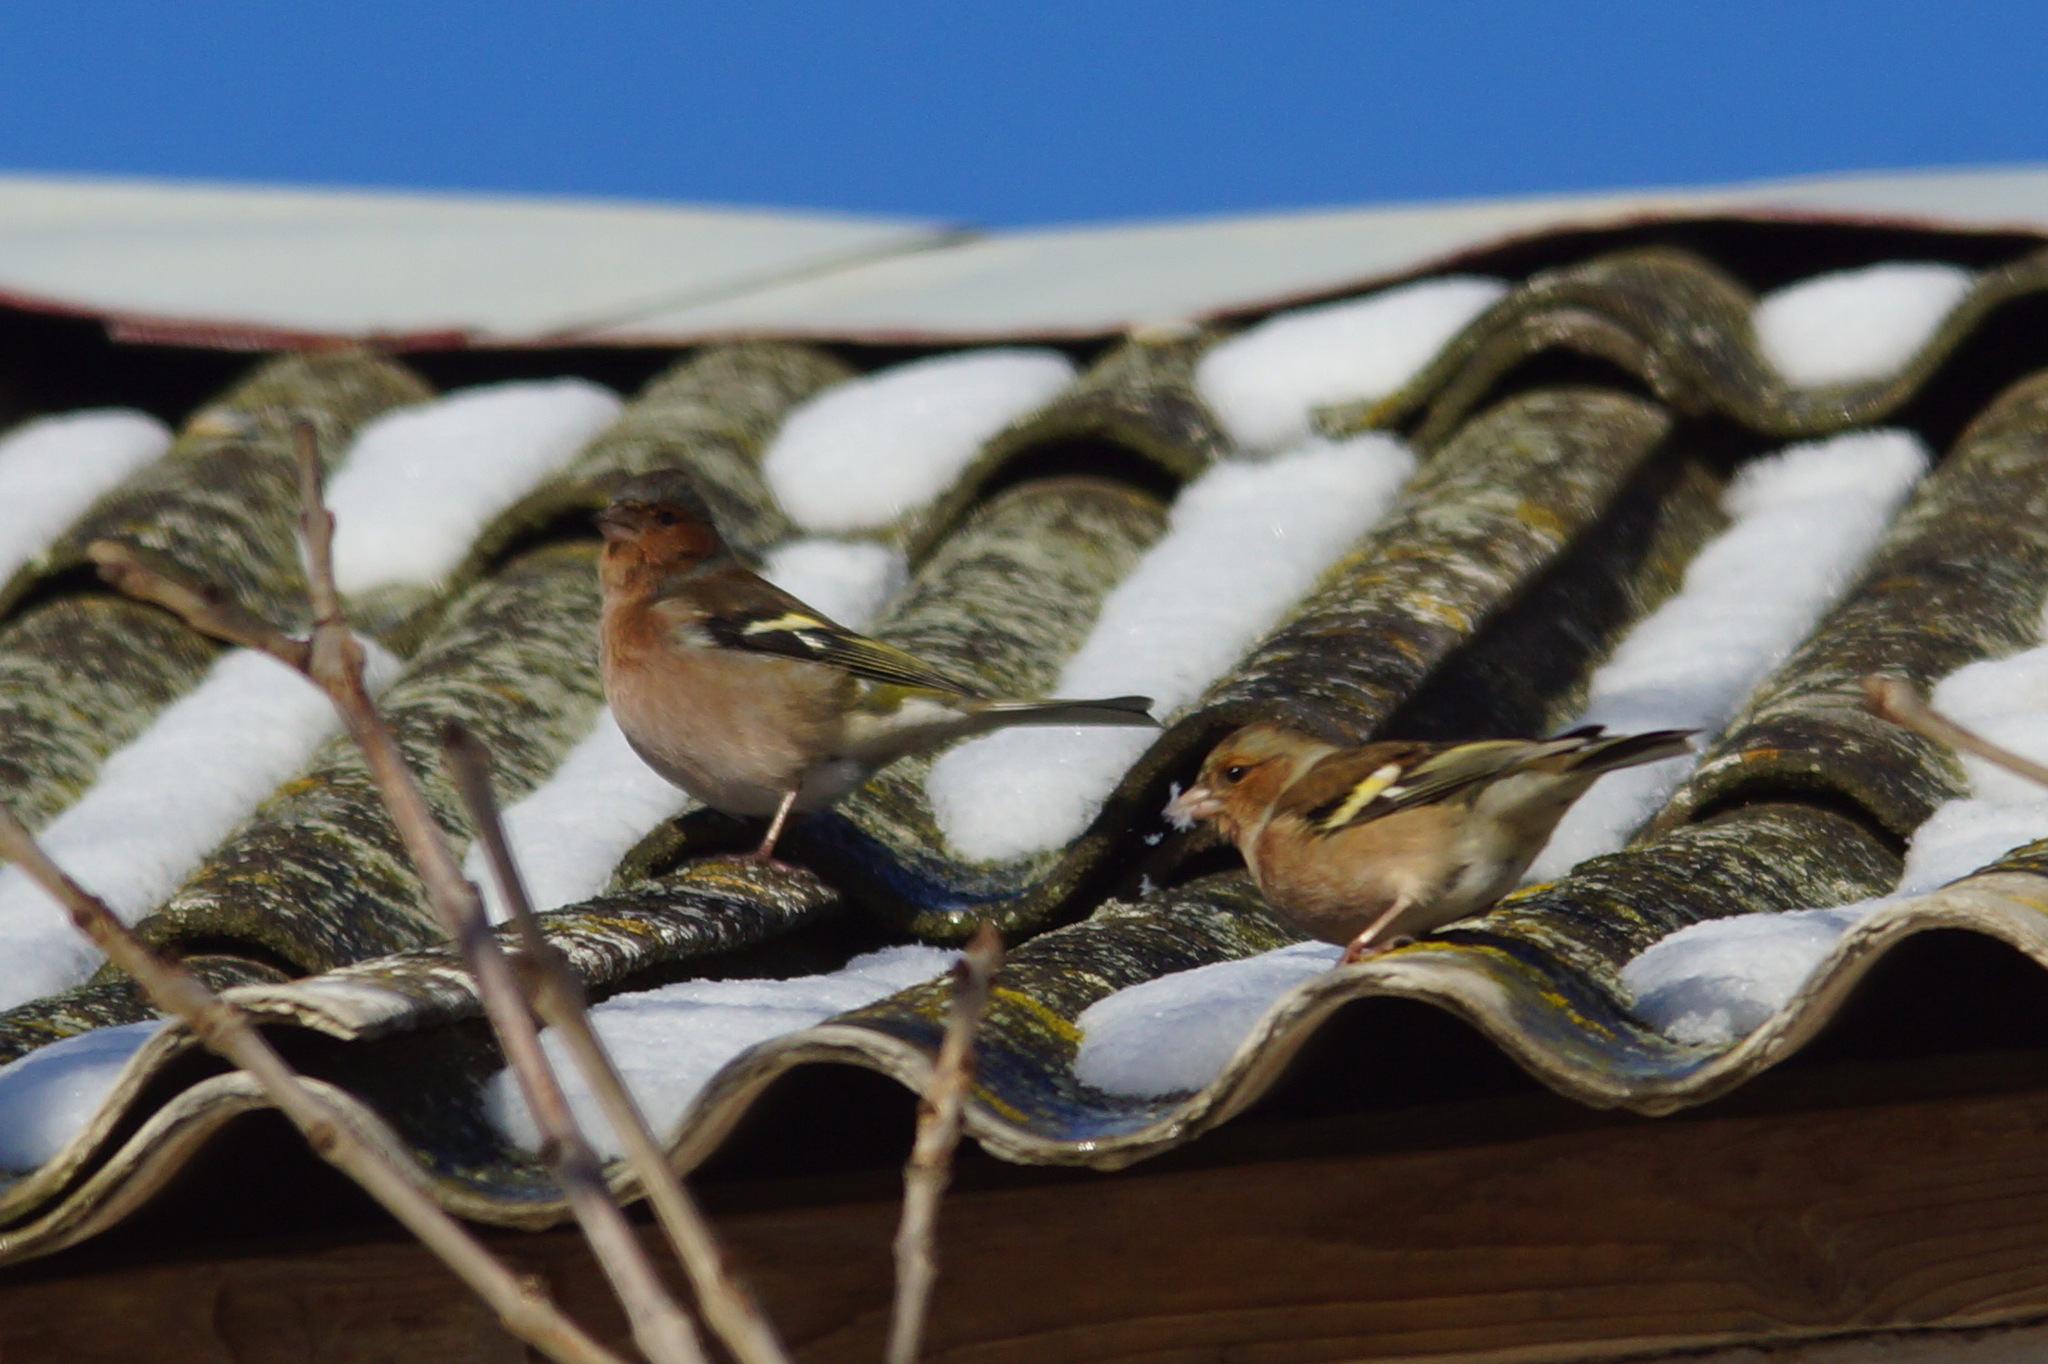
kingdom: Animalia
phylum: Chordata
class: Aves
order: Passeriformes
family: Fringillidae
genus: Fringilla
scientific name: Fringilla coelebs
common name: Common chaffinch
